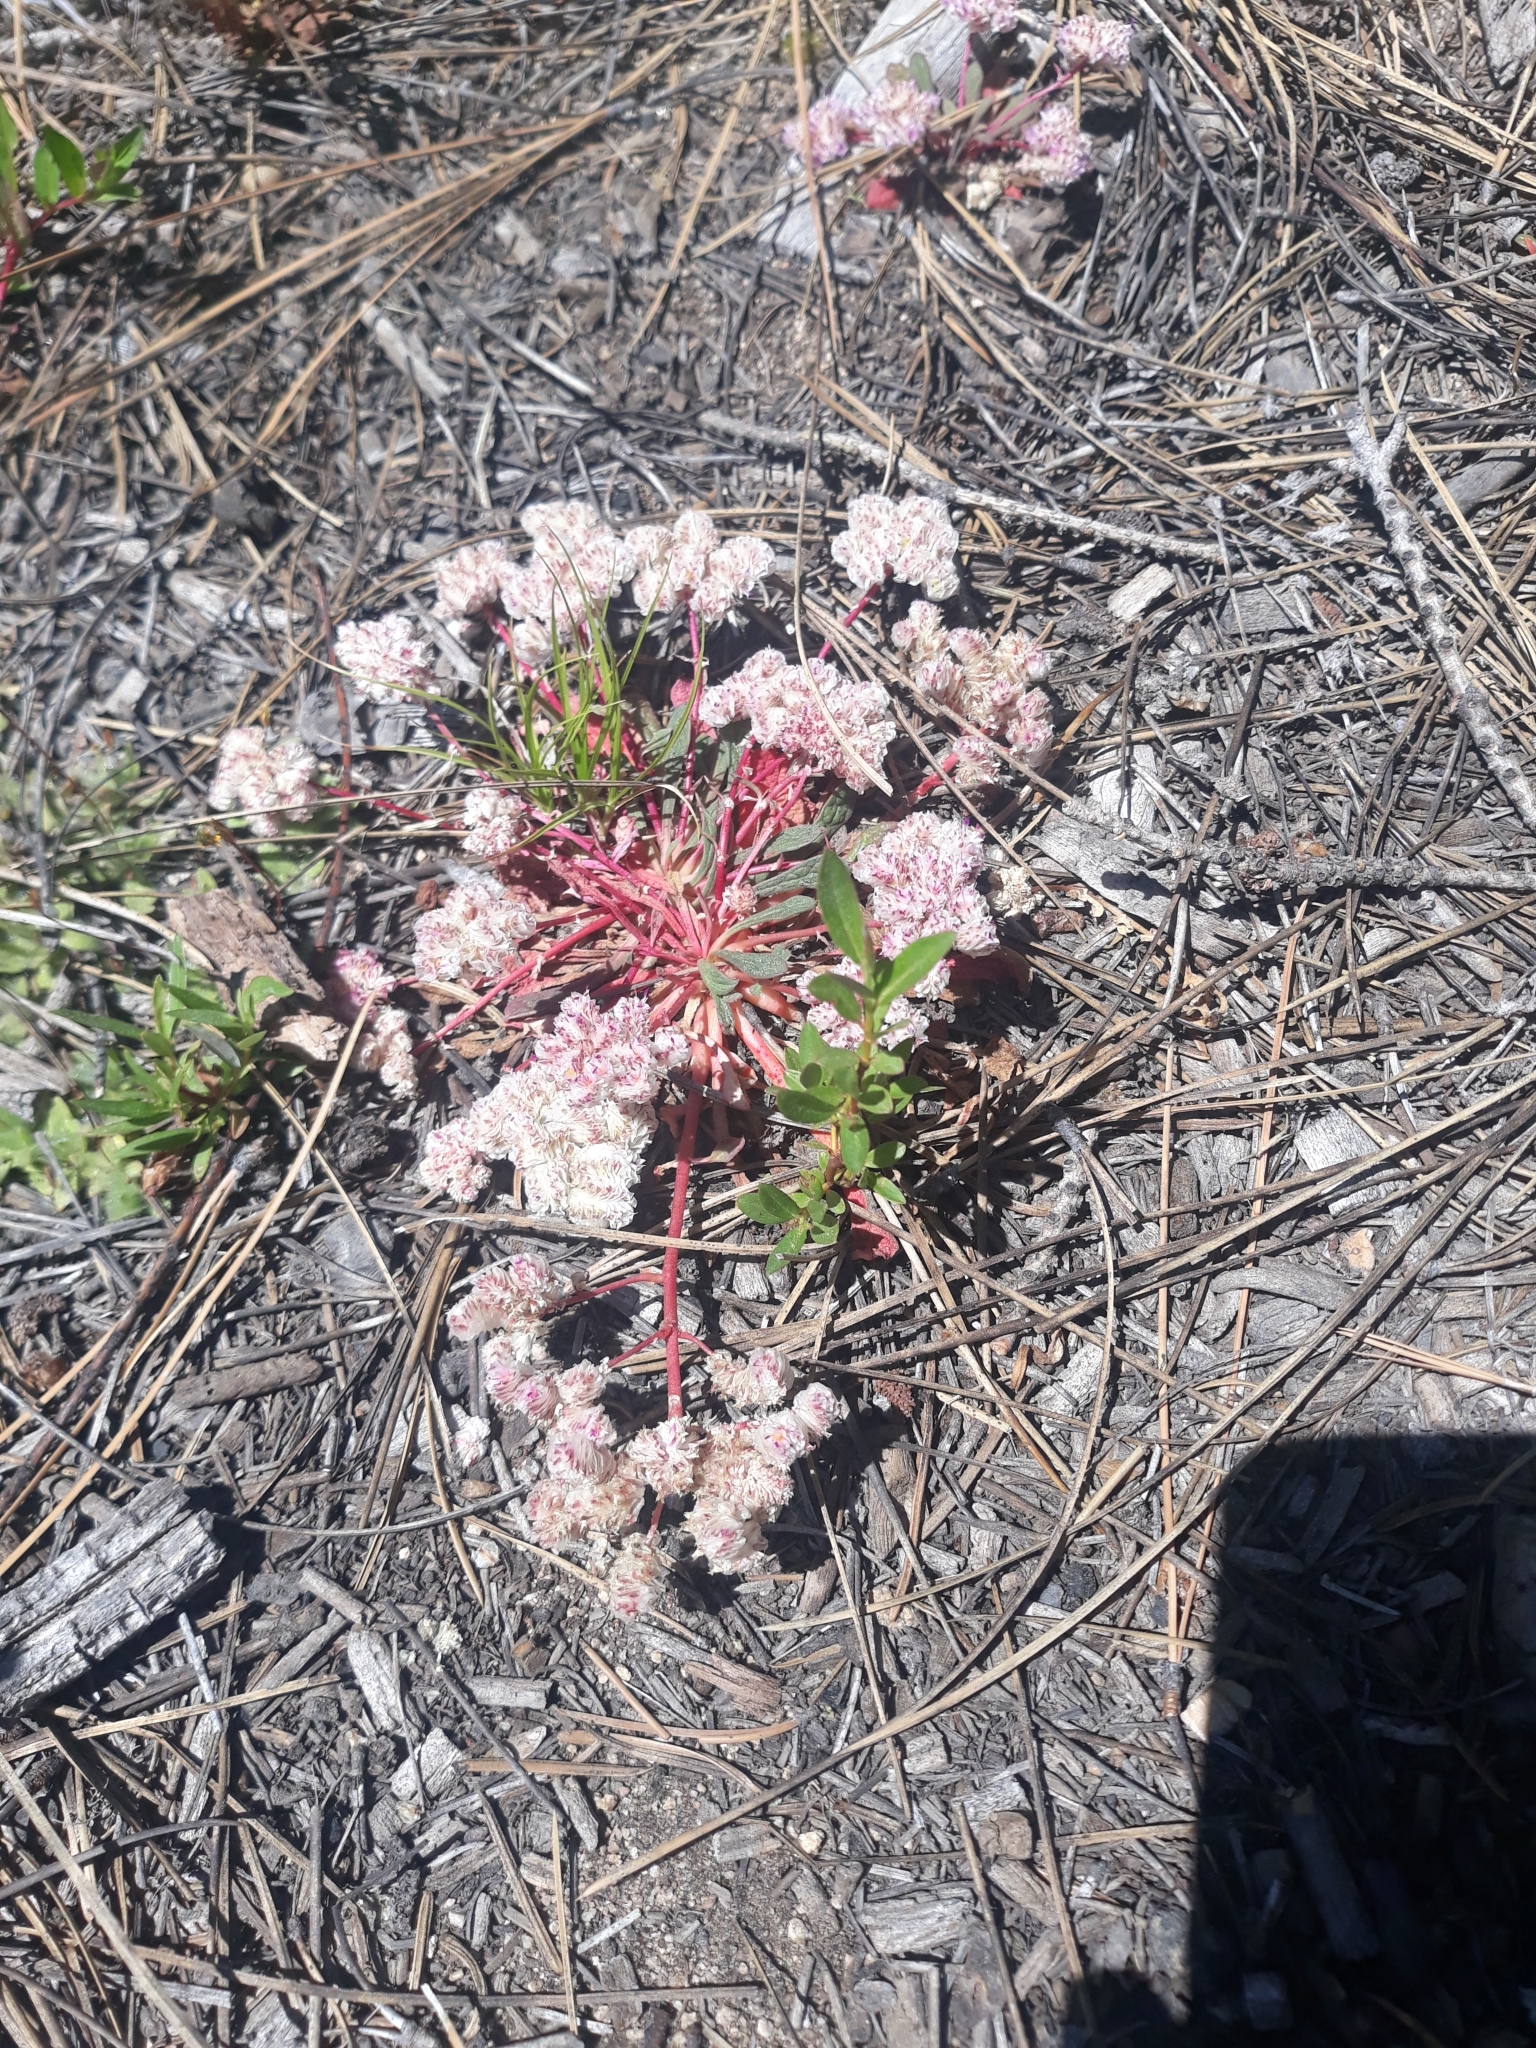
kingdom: Plantae
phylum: Tracheophyta
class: Magnoliopsida
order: Caryophyllales
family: Montiaceae
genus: Calyptridium
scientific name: Calyptridium monospermum
